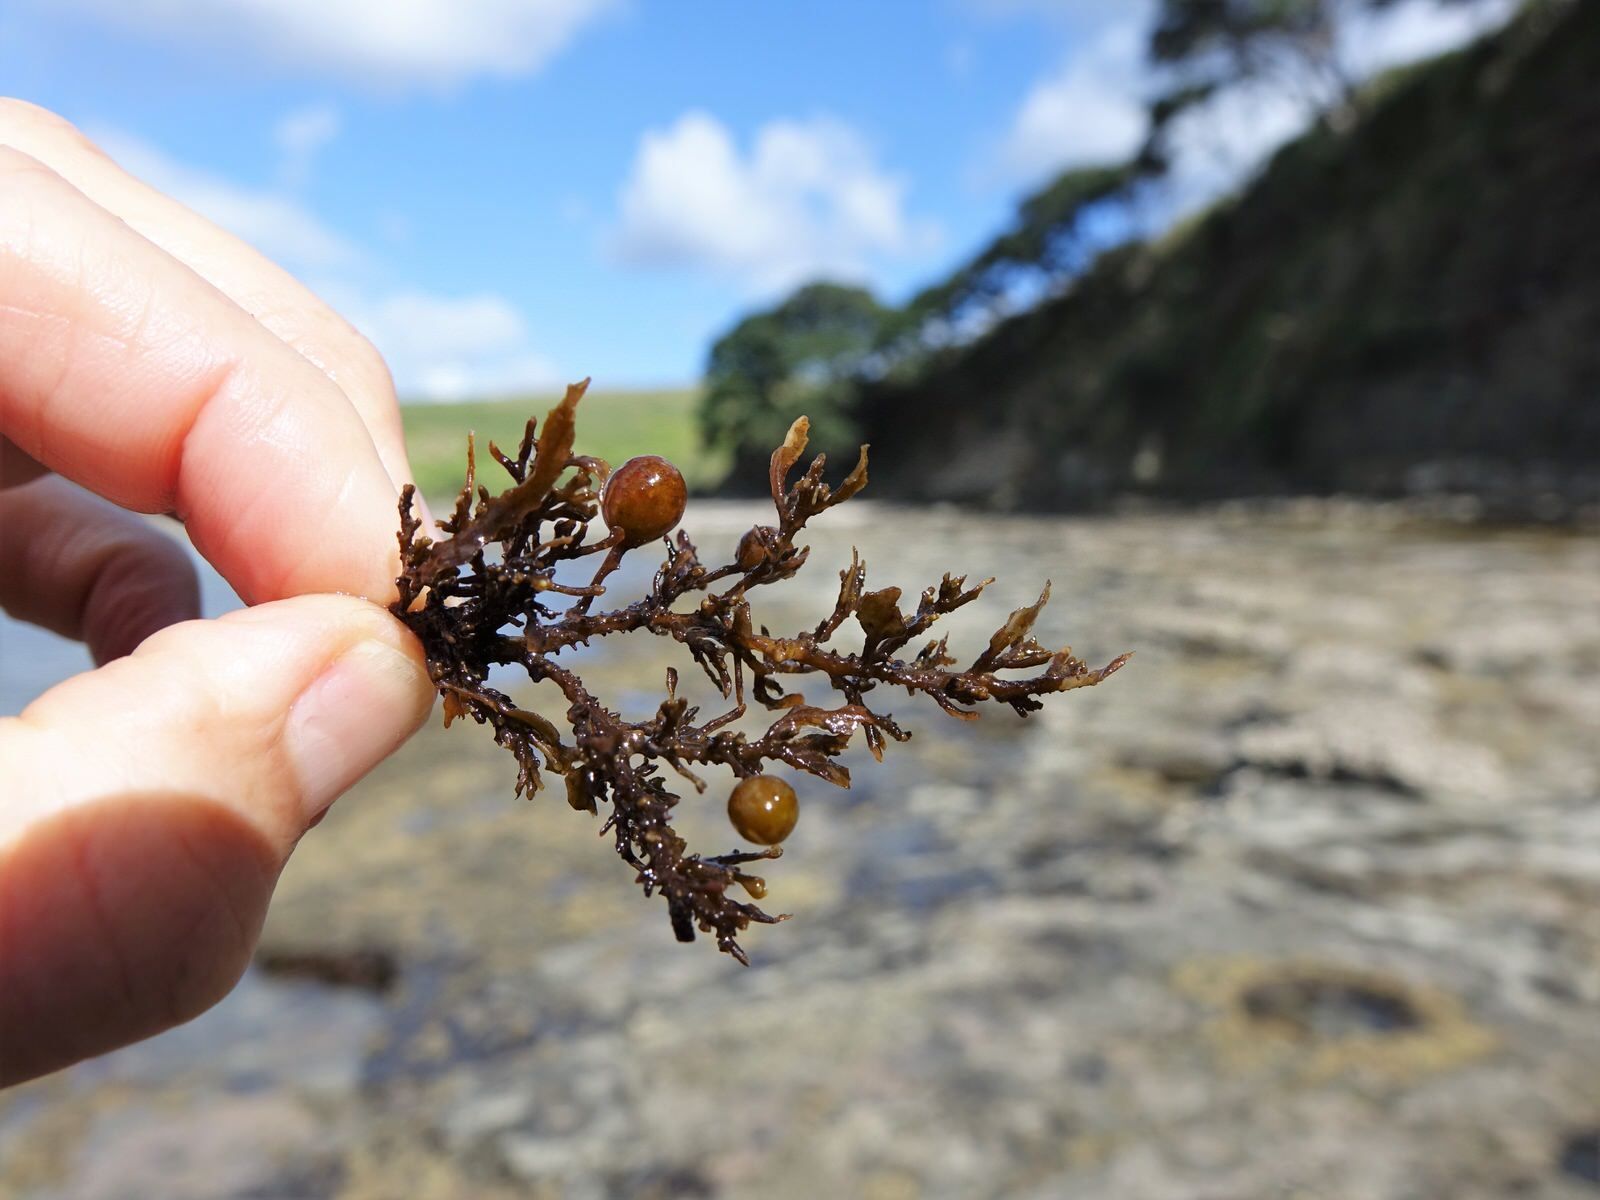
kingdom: Chromista
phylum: Ochrophyta
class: Phaeophyceae
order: Fucales
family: Sargassaceae
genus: Sargassum
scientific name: Sargassum scabridum
